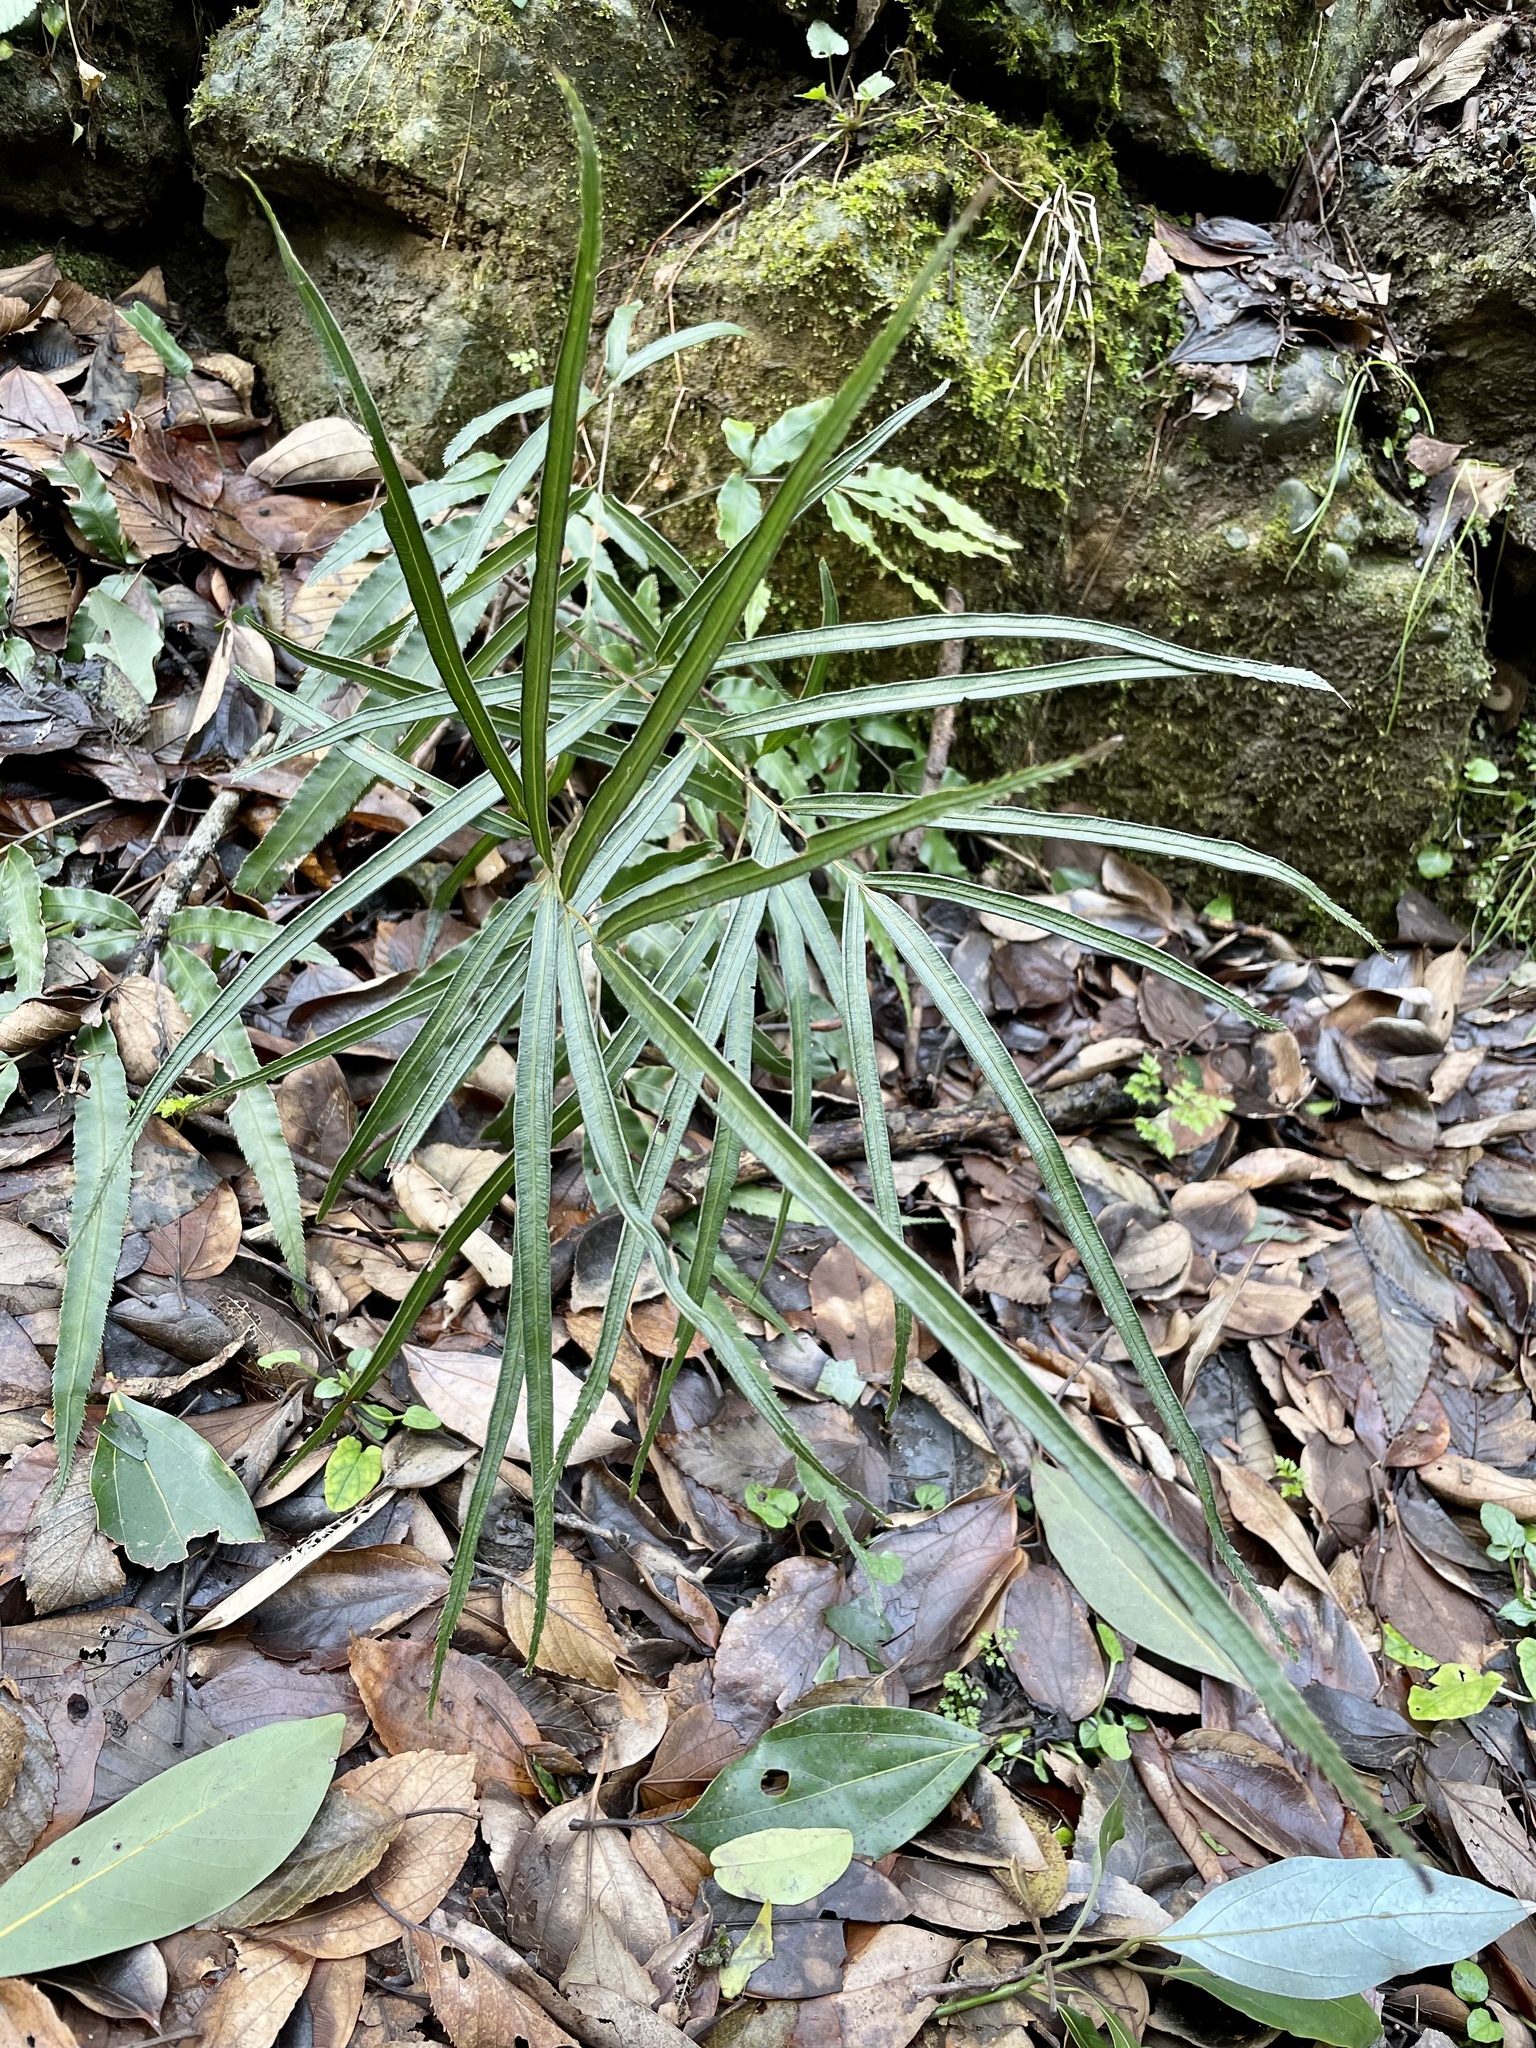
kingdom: Plantae
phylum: Tracheophyta
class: Polypodiopsida
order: Polypodiales
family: Pteridaceae
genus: Pteris
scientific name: Pteris cretica
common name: Ribbon fern
